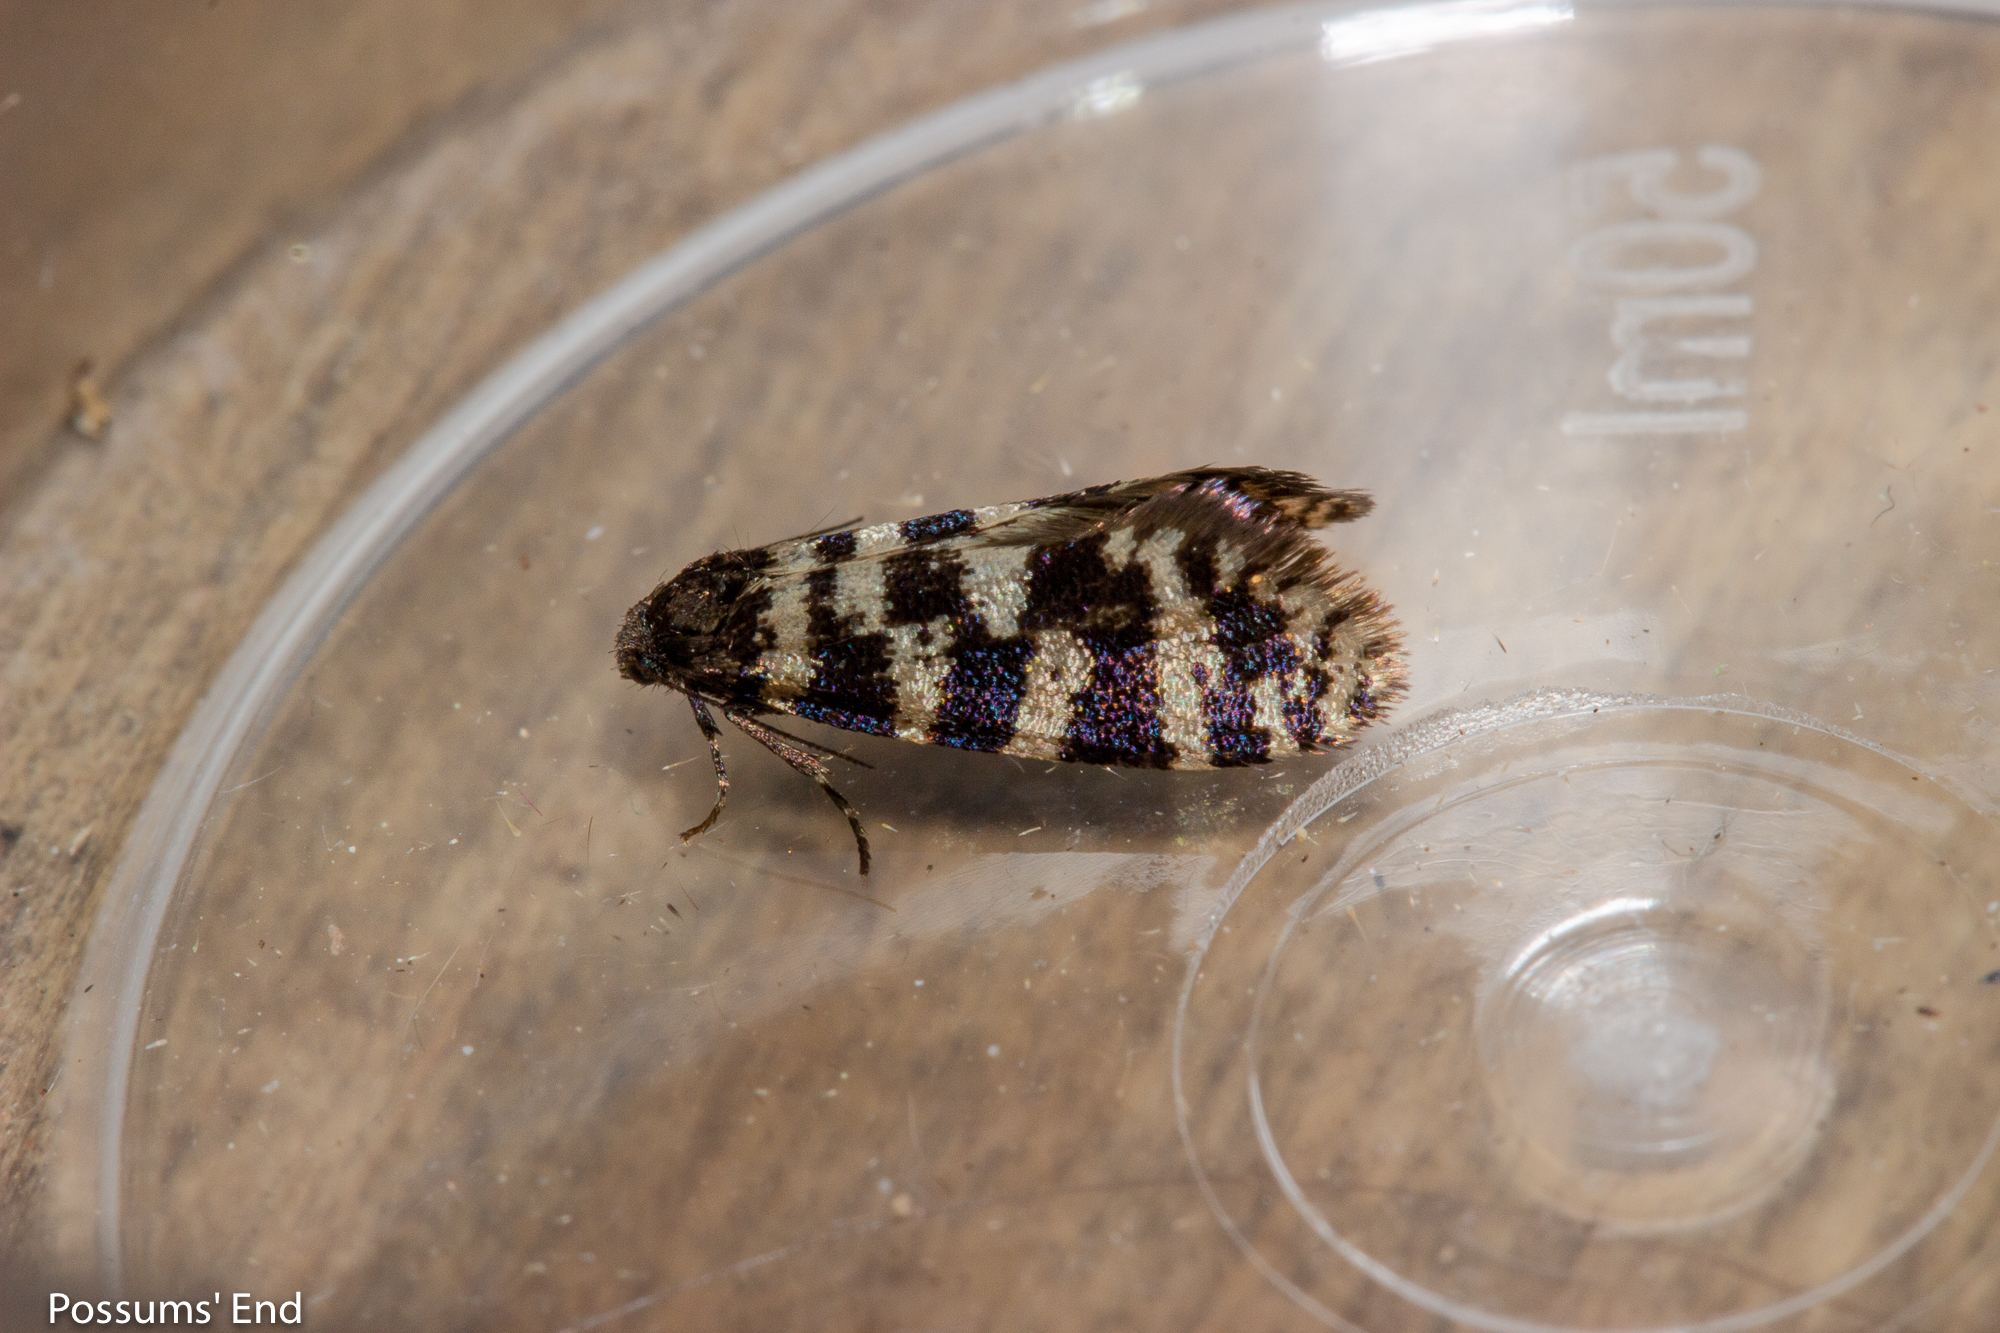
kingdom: Animalia
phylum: Arthropoda
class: Insecta
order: Lepidoptera
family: Psychidae
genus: Mallobathra
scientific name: Mallobathra memotuina
